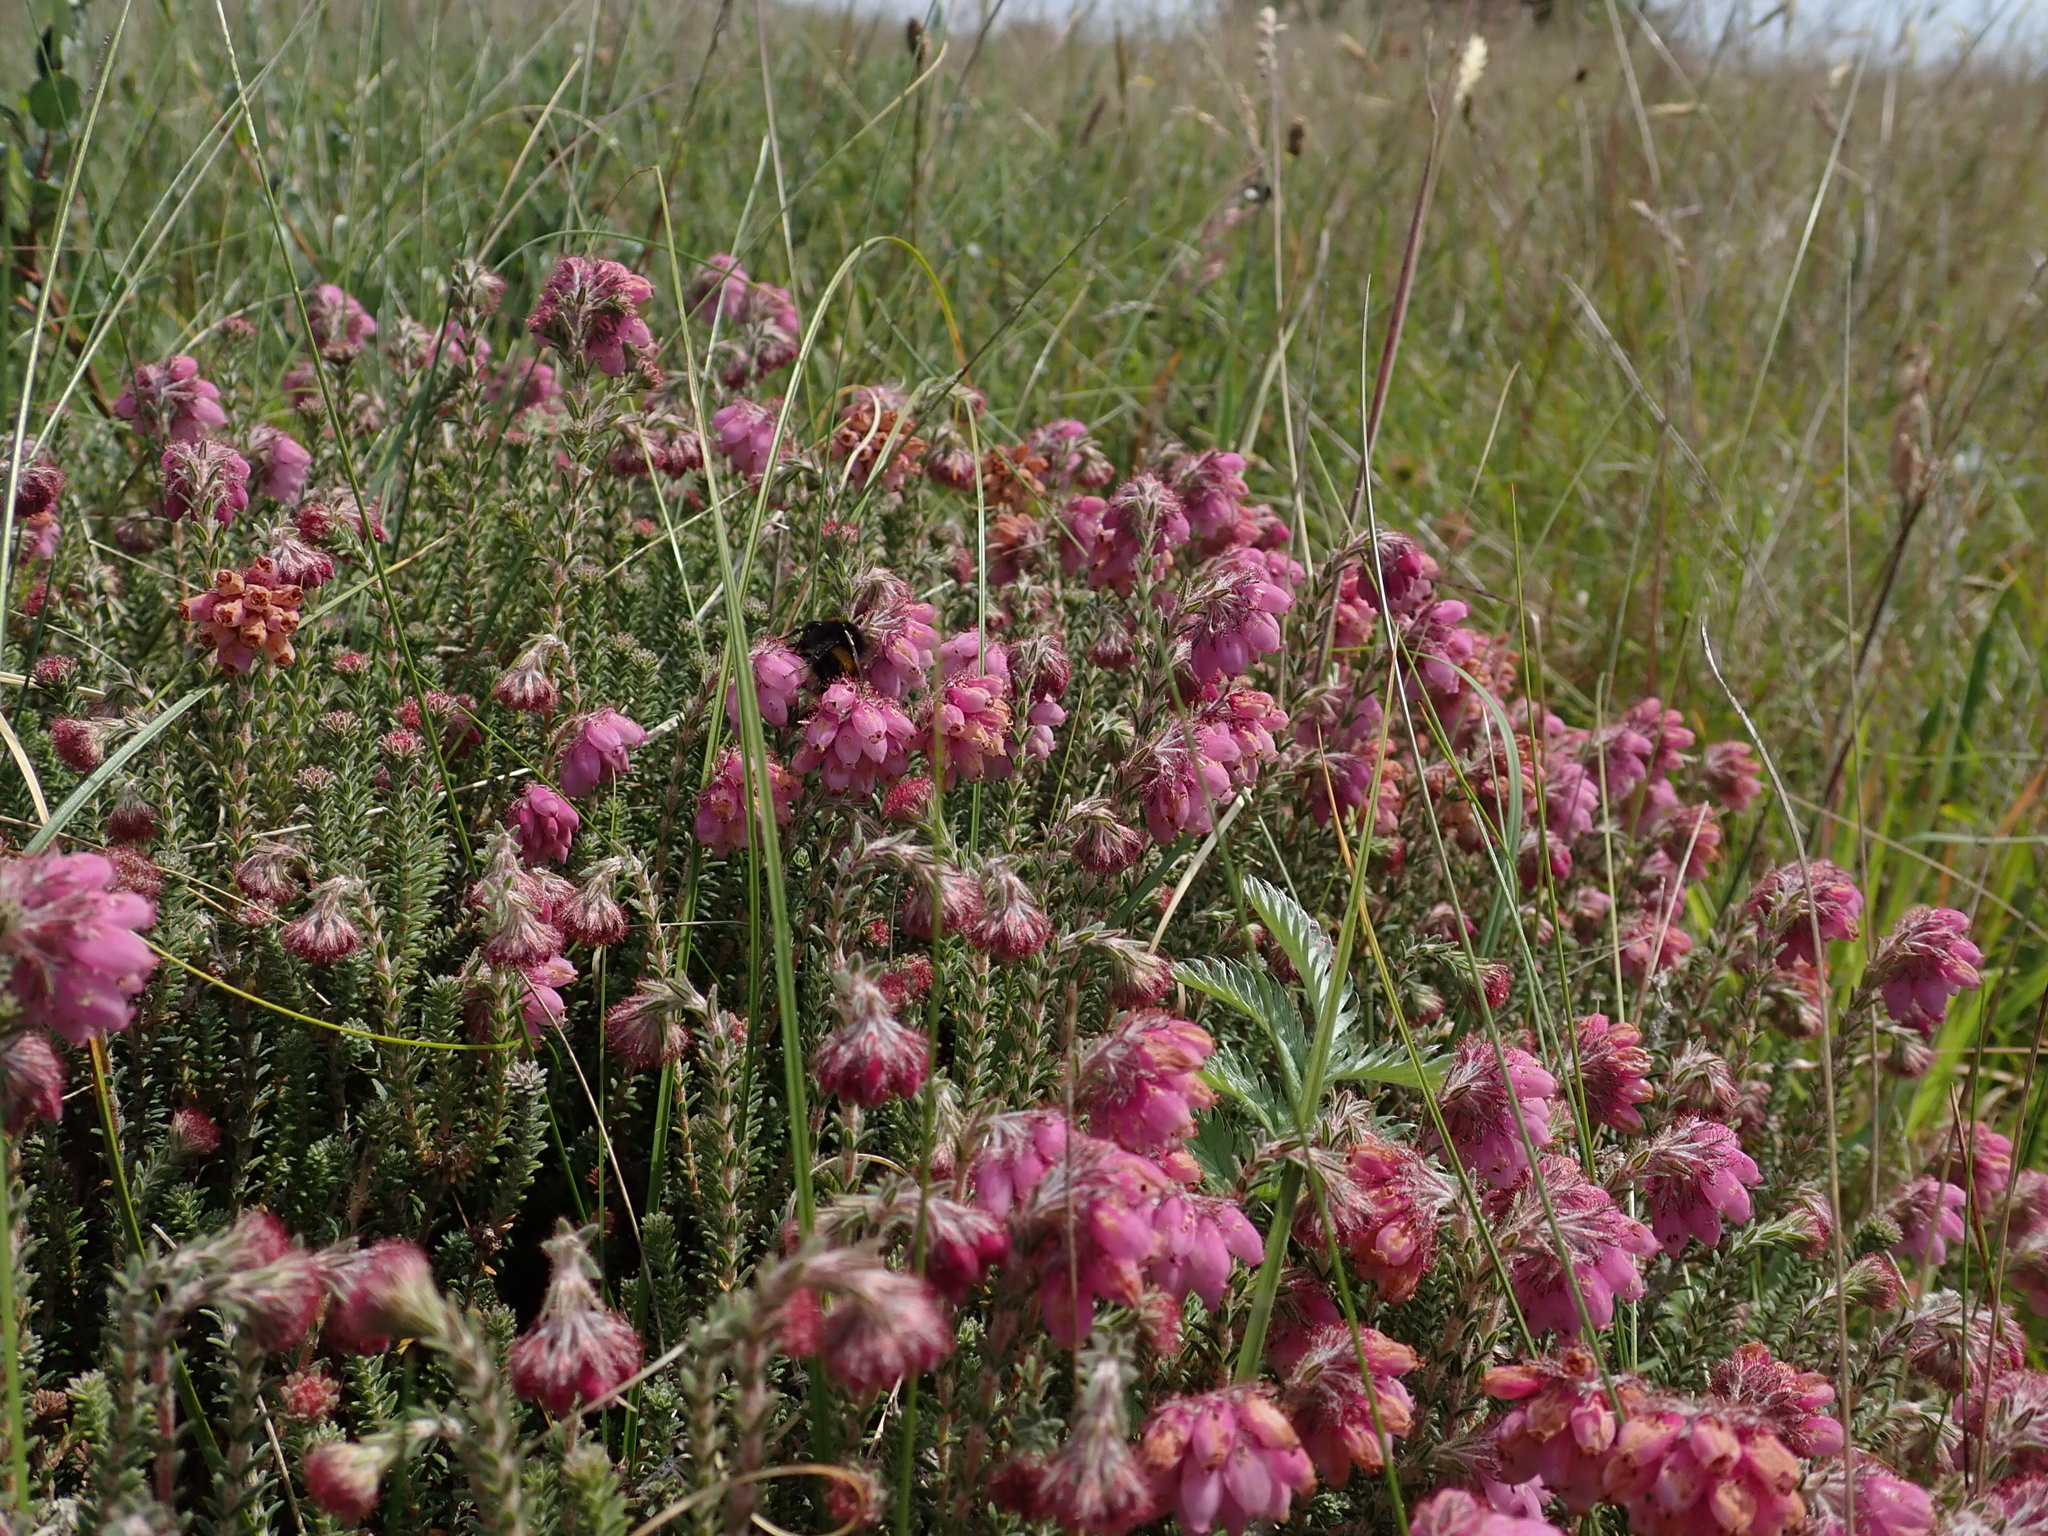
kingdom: Plantae
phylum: Tracheophyta
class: Magnoliopsida
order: Ericales
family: Ericaceae
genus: Erica
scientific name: Erica tetralix
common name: Cross-leaved heath
